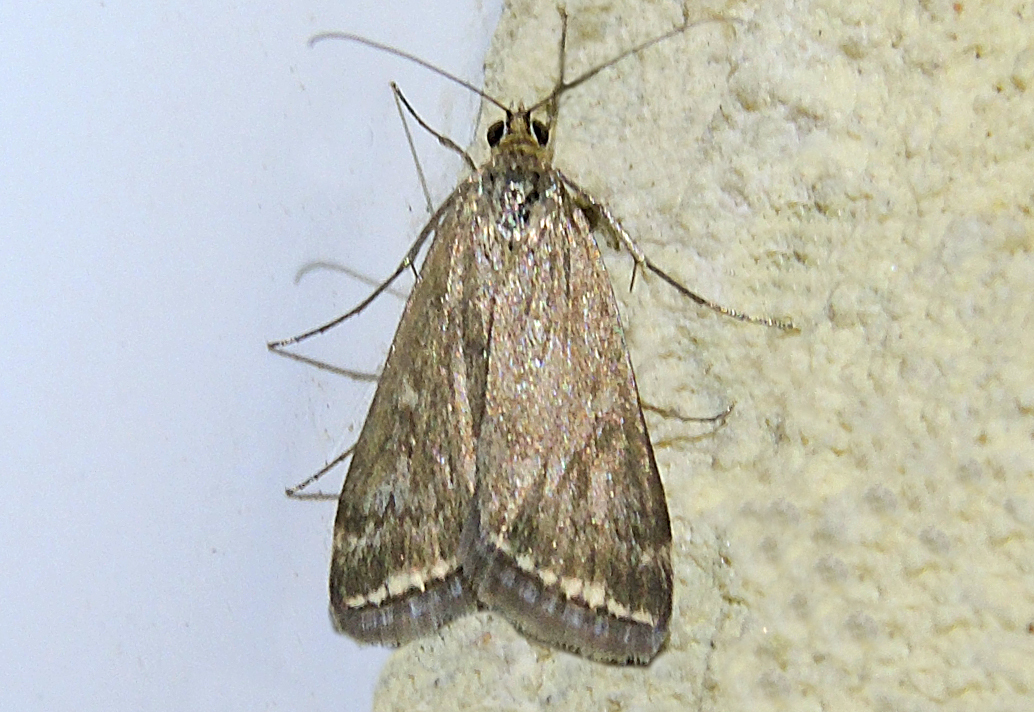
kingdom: Animalia
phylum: Arthropoda
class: Insecta
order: Lepidoptera
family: Crambidae
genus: Loxostege
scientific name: Loxostege sticticalis
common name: Crambid moth
